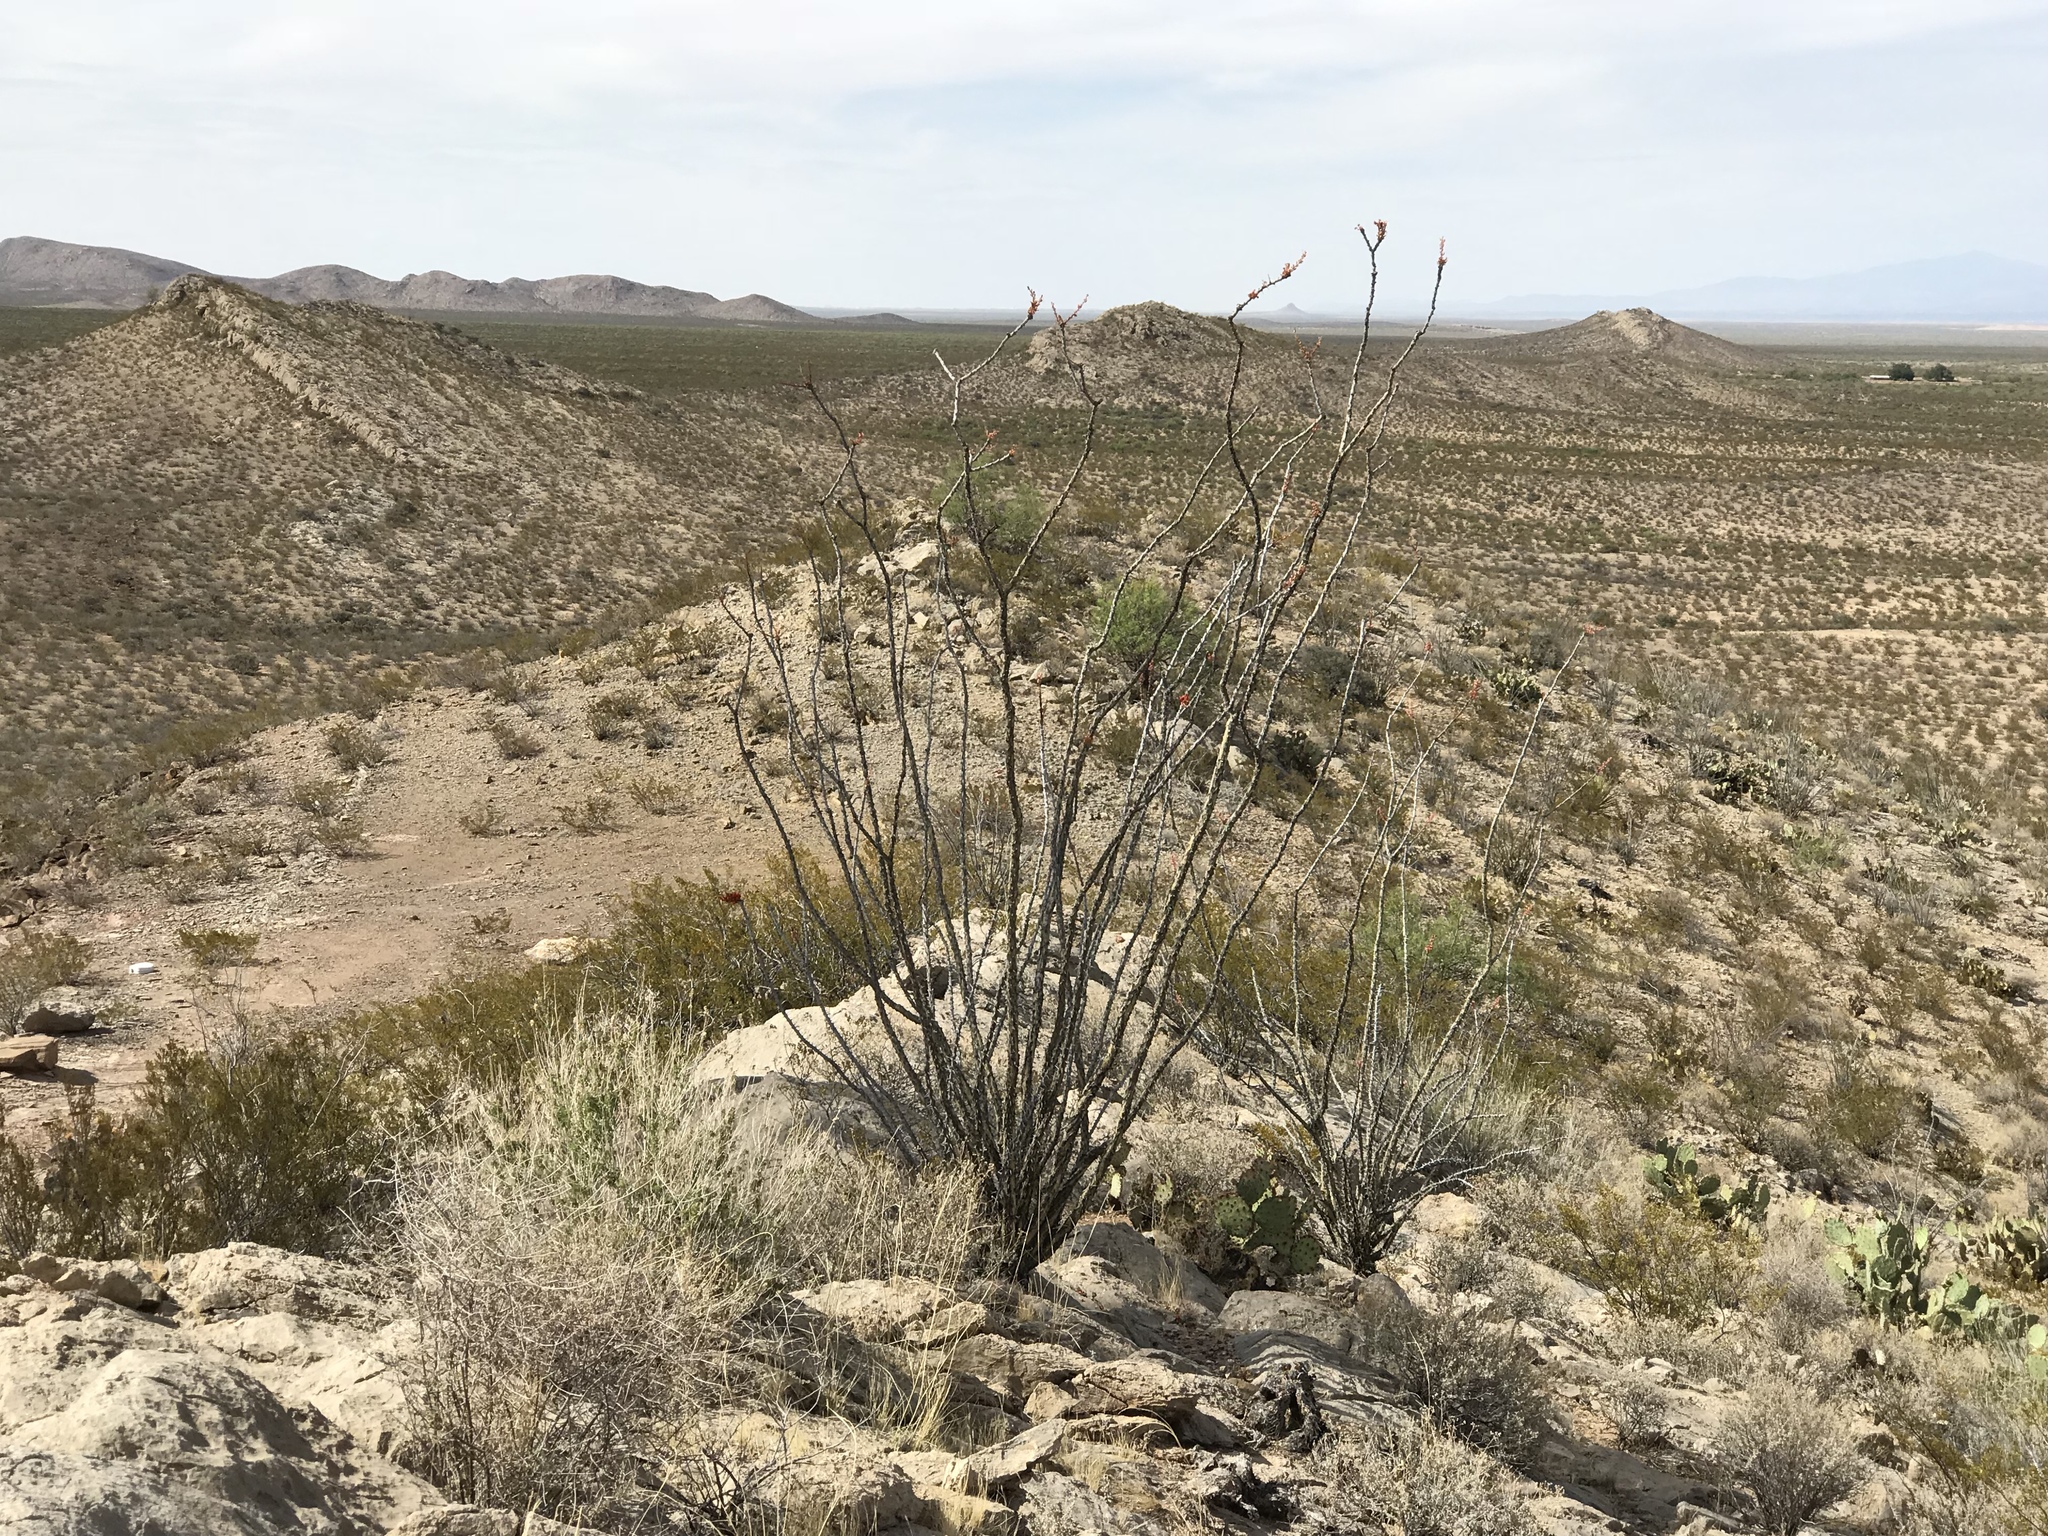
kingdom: Plantae
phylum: Tracheophyta
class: Magnoliopsida
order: Ericales
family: Fouquieriaceae
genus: Fouquieria
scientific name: Fouquieria splendens
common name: Vine-cactus
